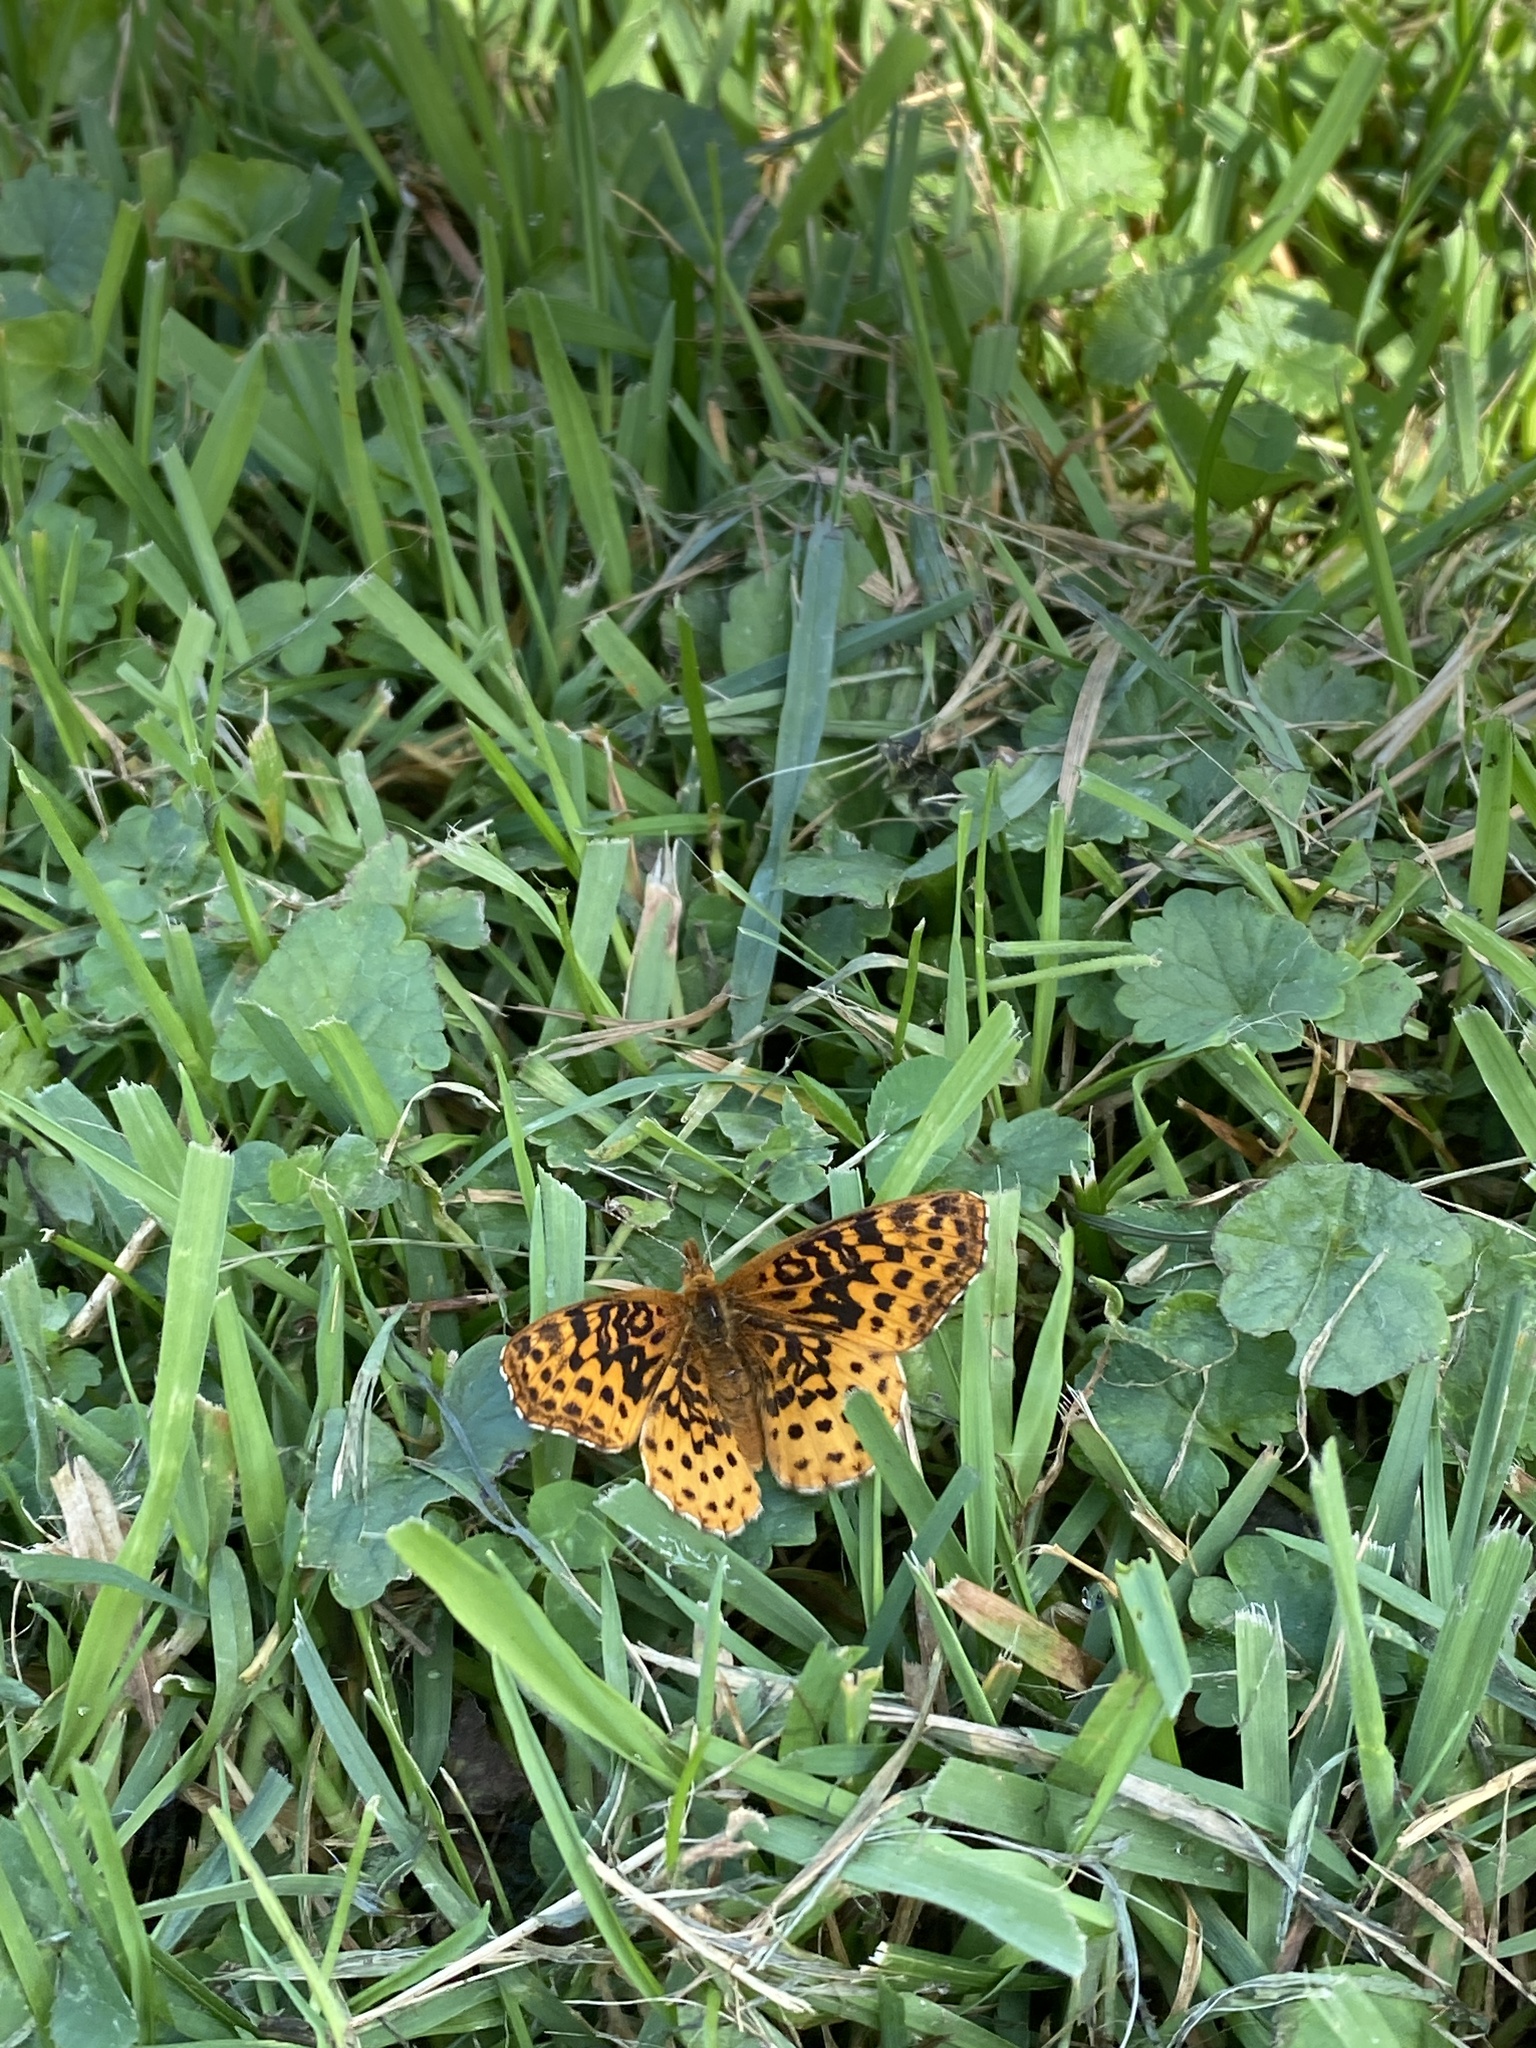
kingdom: Animalia
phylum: Arthropoda
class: Insecta
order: Lepidoptera
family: Nymphalidae
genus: Clossiana
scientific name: Clossiana toddi
